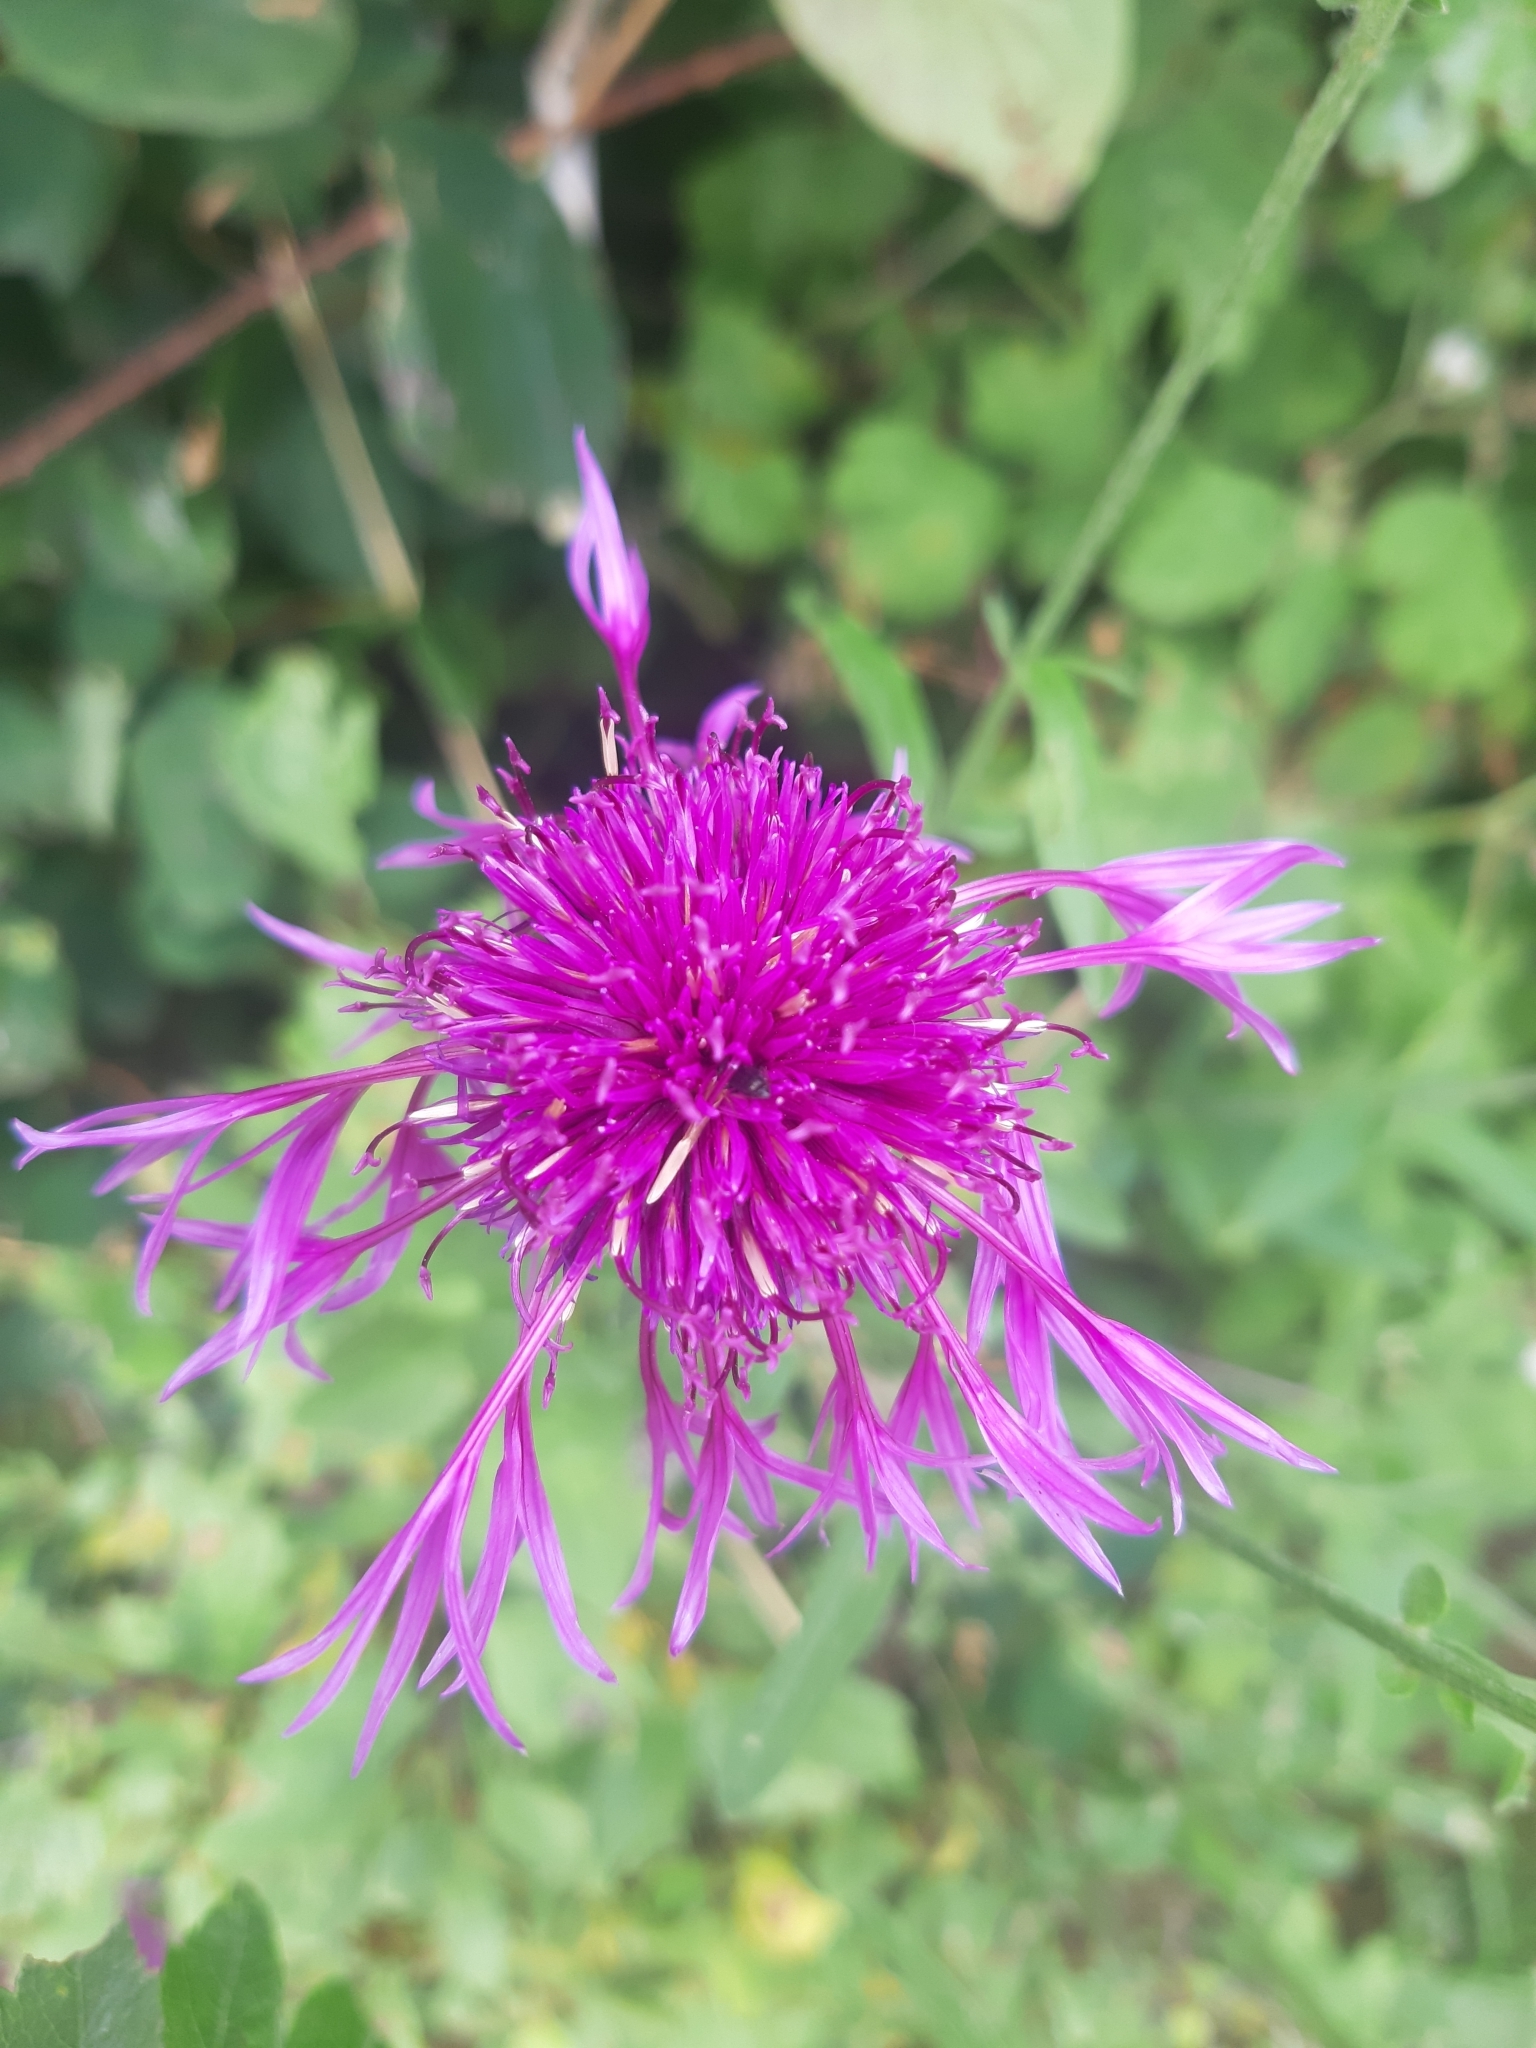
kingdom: Plantae
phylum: Tracheophyta
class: Magnoliopsida
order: Asterales
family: Asteraceae
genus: Centaurea
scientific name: Centaurea scabiosa
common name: Greater knapweed
